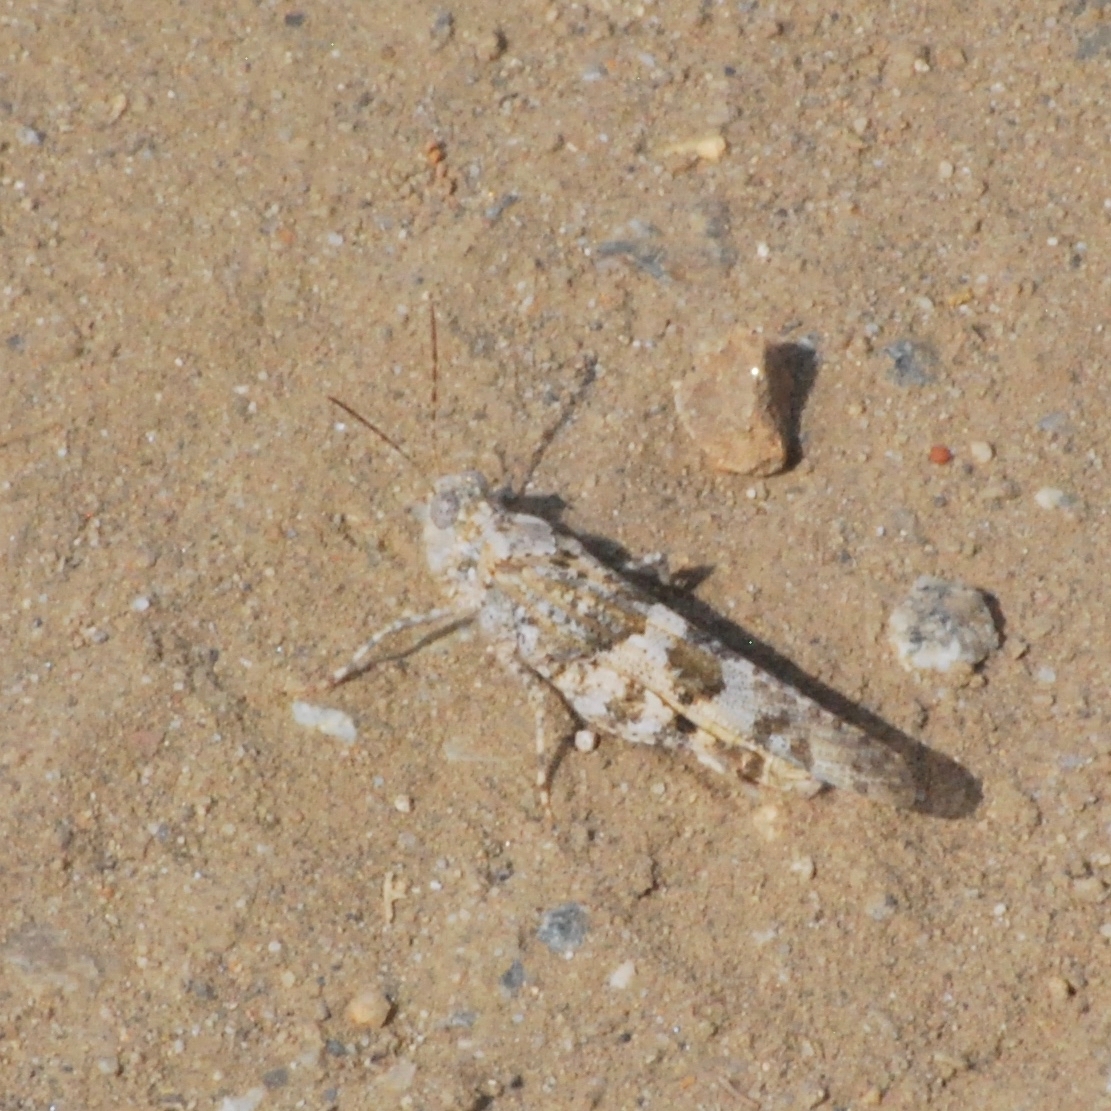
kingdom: Animalia
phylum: Arthropoda
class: Insecta
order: Orthoptera
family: Acrididae
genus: Trimerotropis
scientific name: Trimerotropis pallidipennis
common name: Pallid-winged grasshopper
